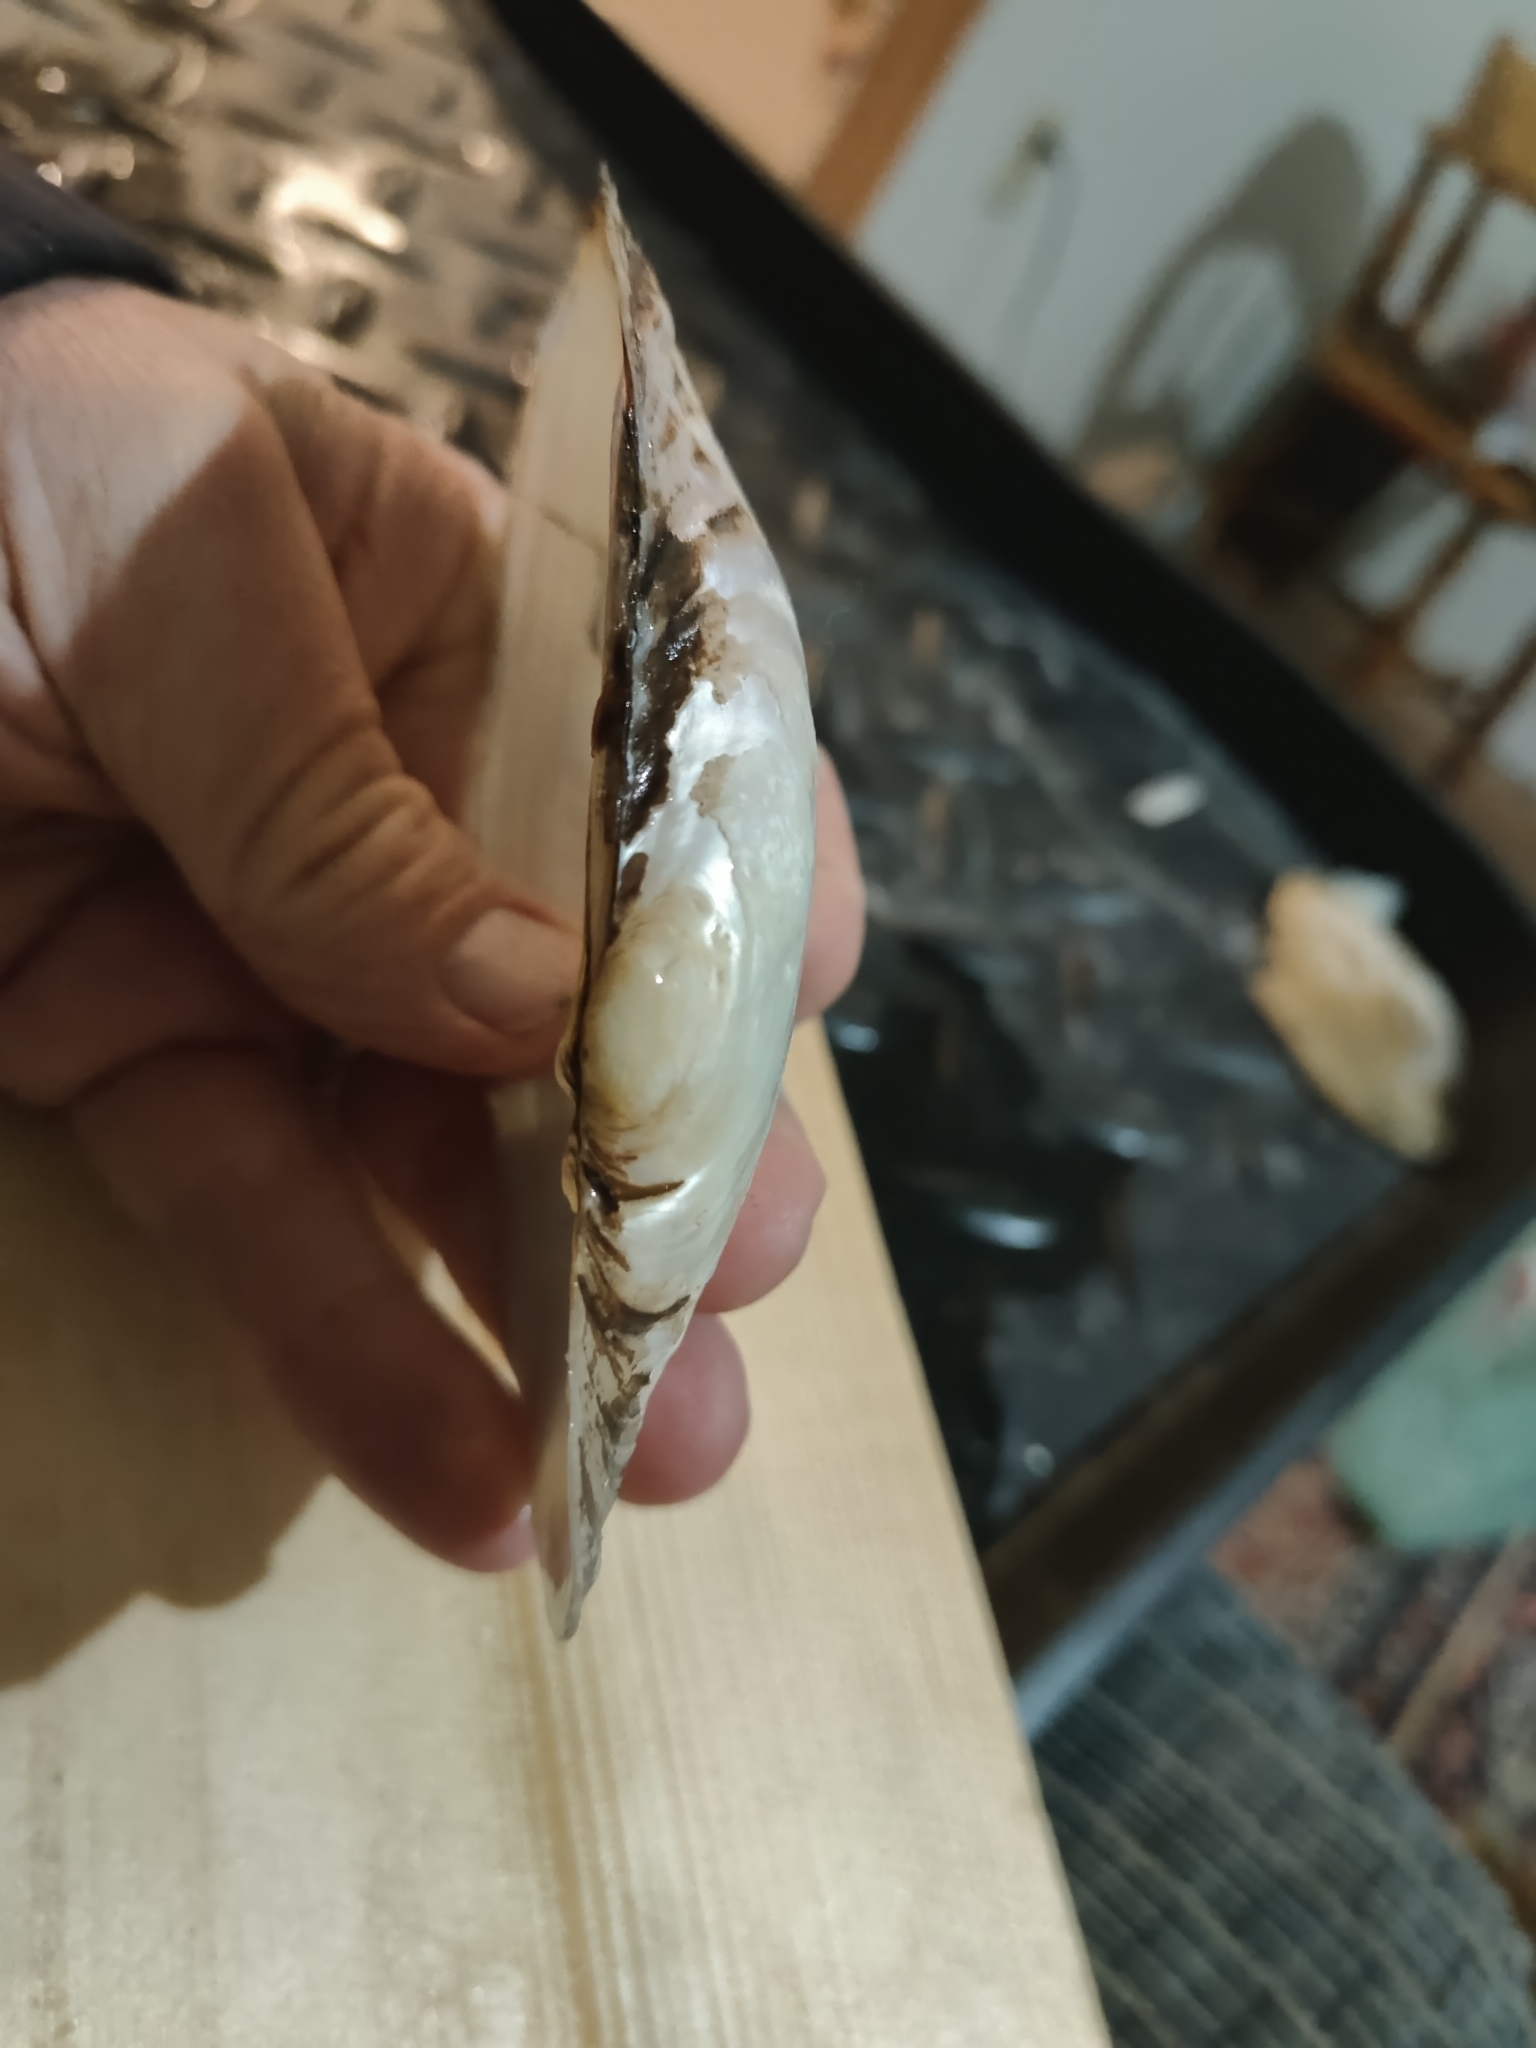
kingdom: Animalia
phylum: Mollusca
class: Bivalvia
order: Unionida
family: Unionidae
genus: Potamilus
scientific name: Potamilus fragilis
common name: Fragile papershell
